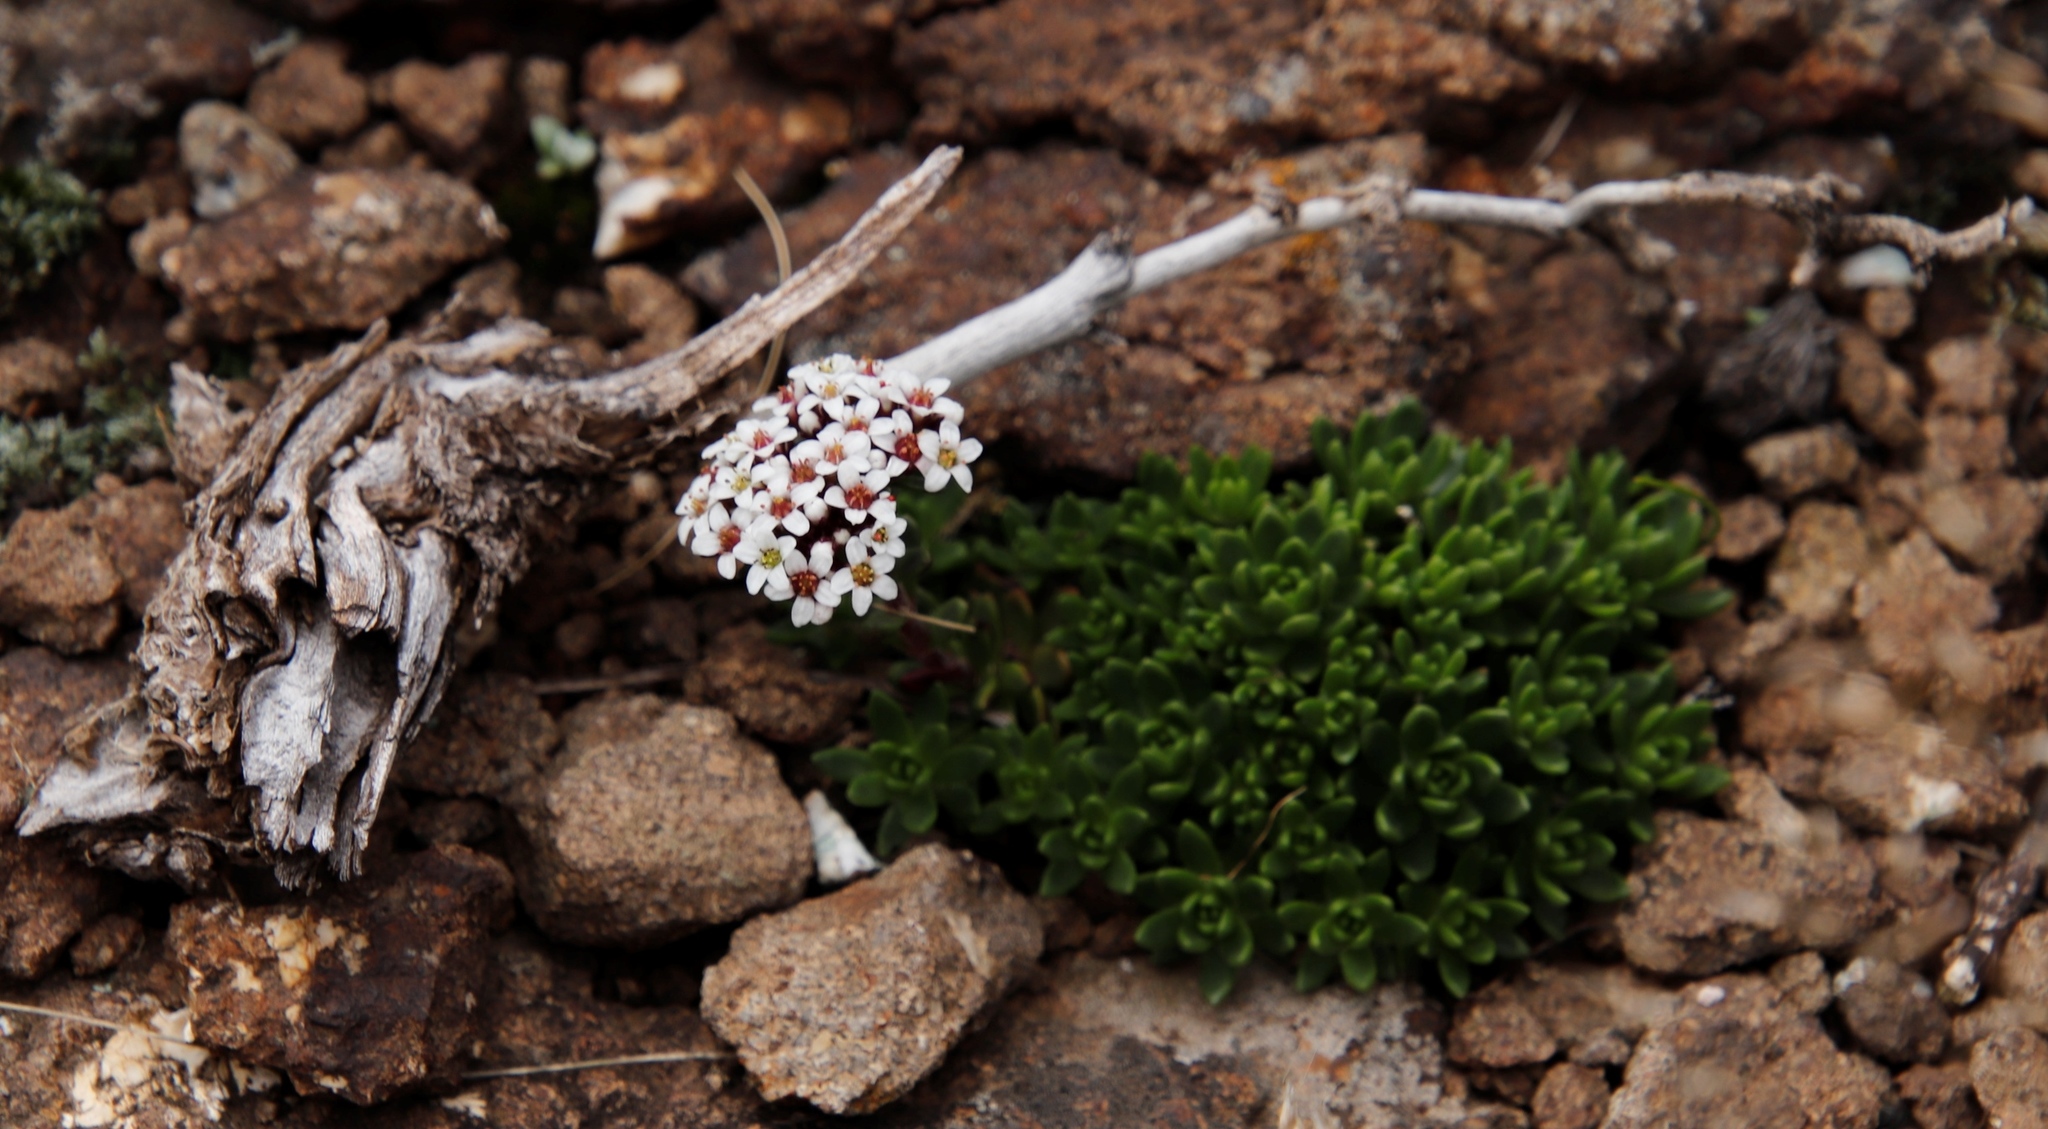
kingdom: Plantae
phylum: Tracheophyta
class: Magnoliopsida
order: Saxifragales
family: Crassulaceae
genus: Crassula
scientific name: Crassula setulosa
